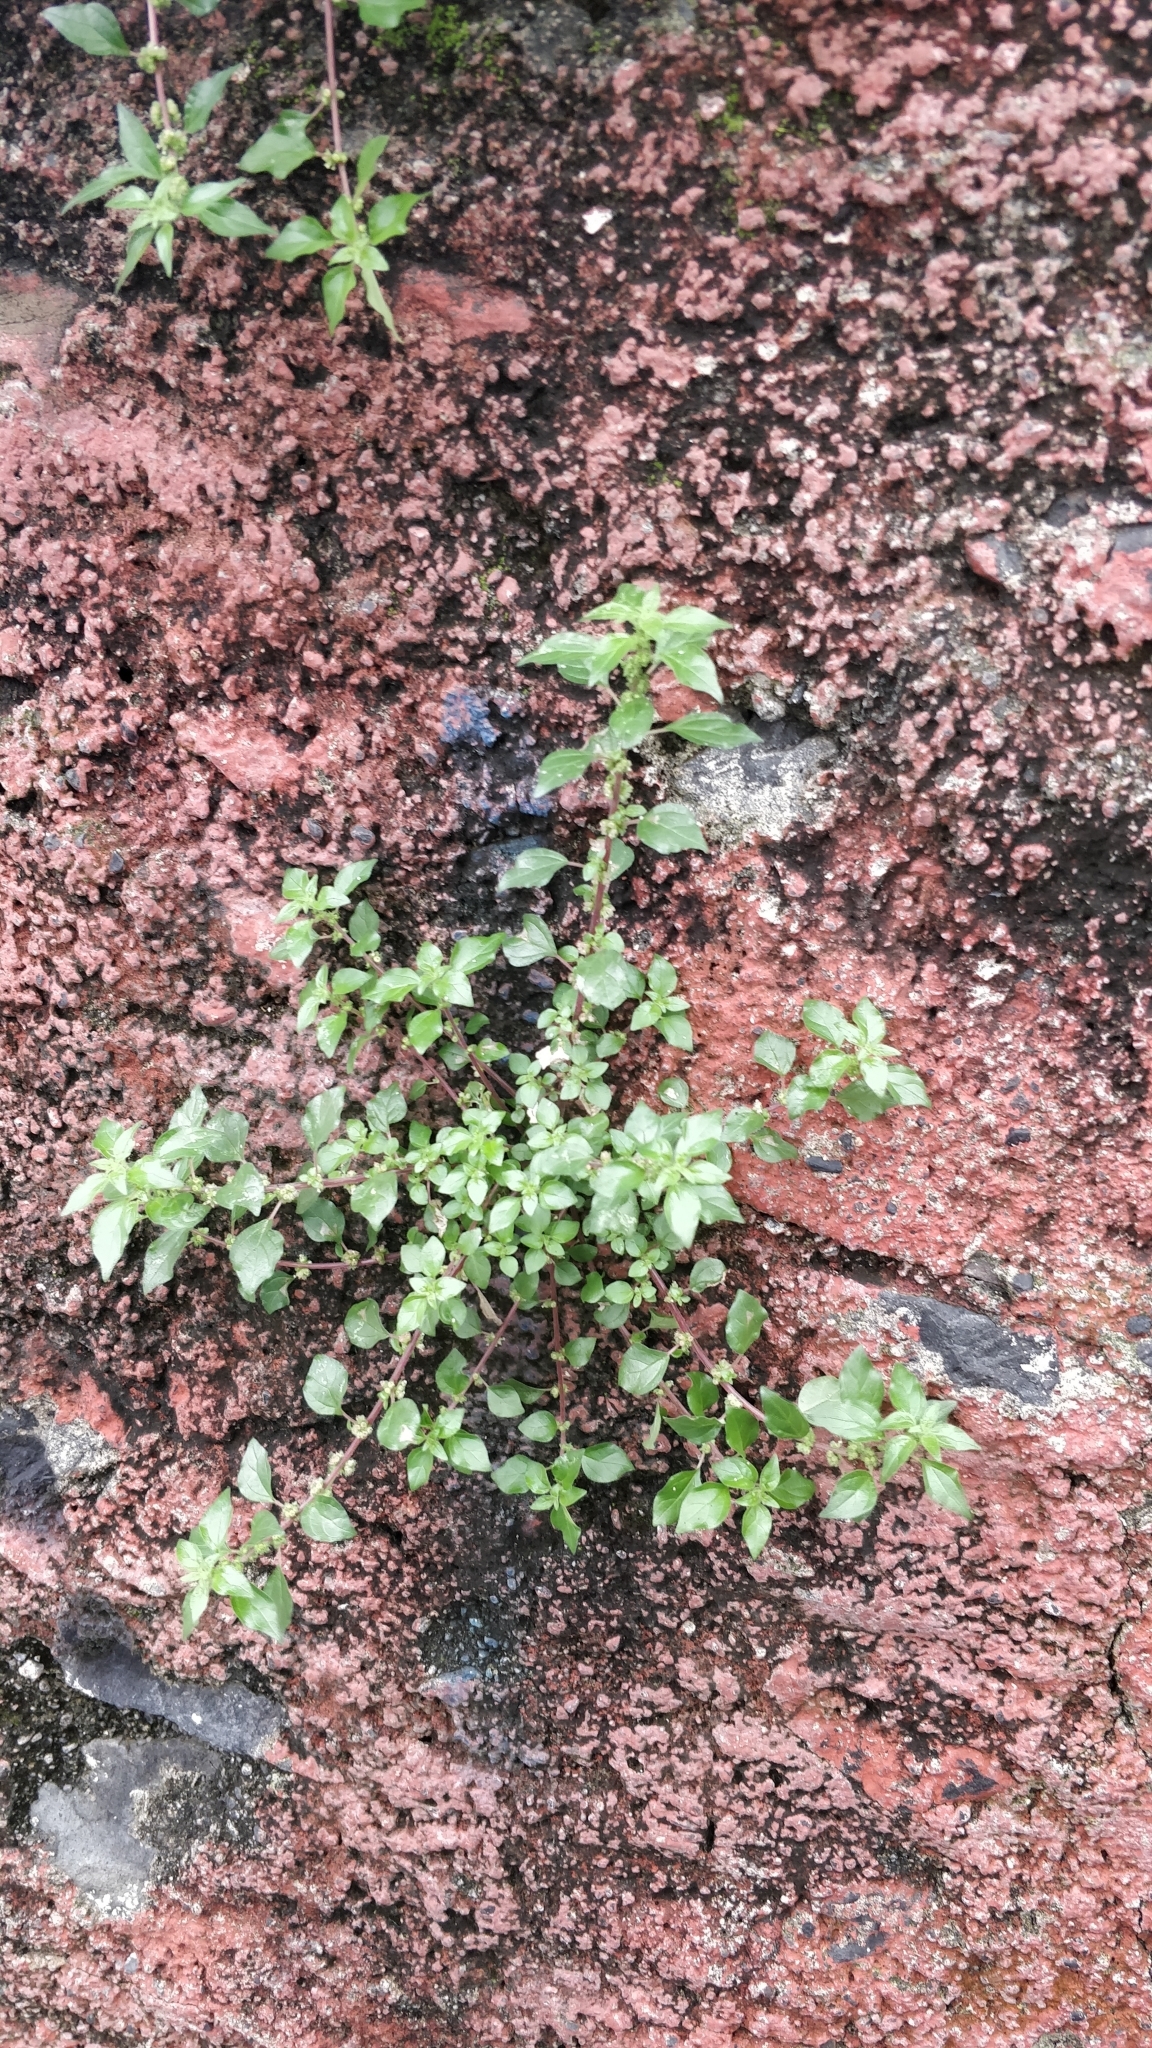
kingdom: Plantae
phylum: Tracheophyta
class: Magnoliopsida
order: Rosales
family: Urticaceae
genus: Parietaria
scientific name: Parietaria judaica
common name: Pellitory-of-the-wall
